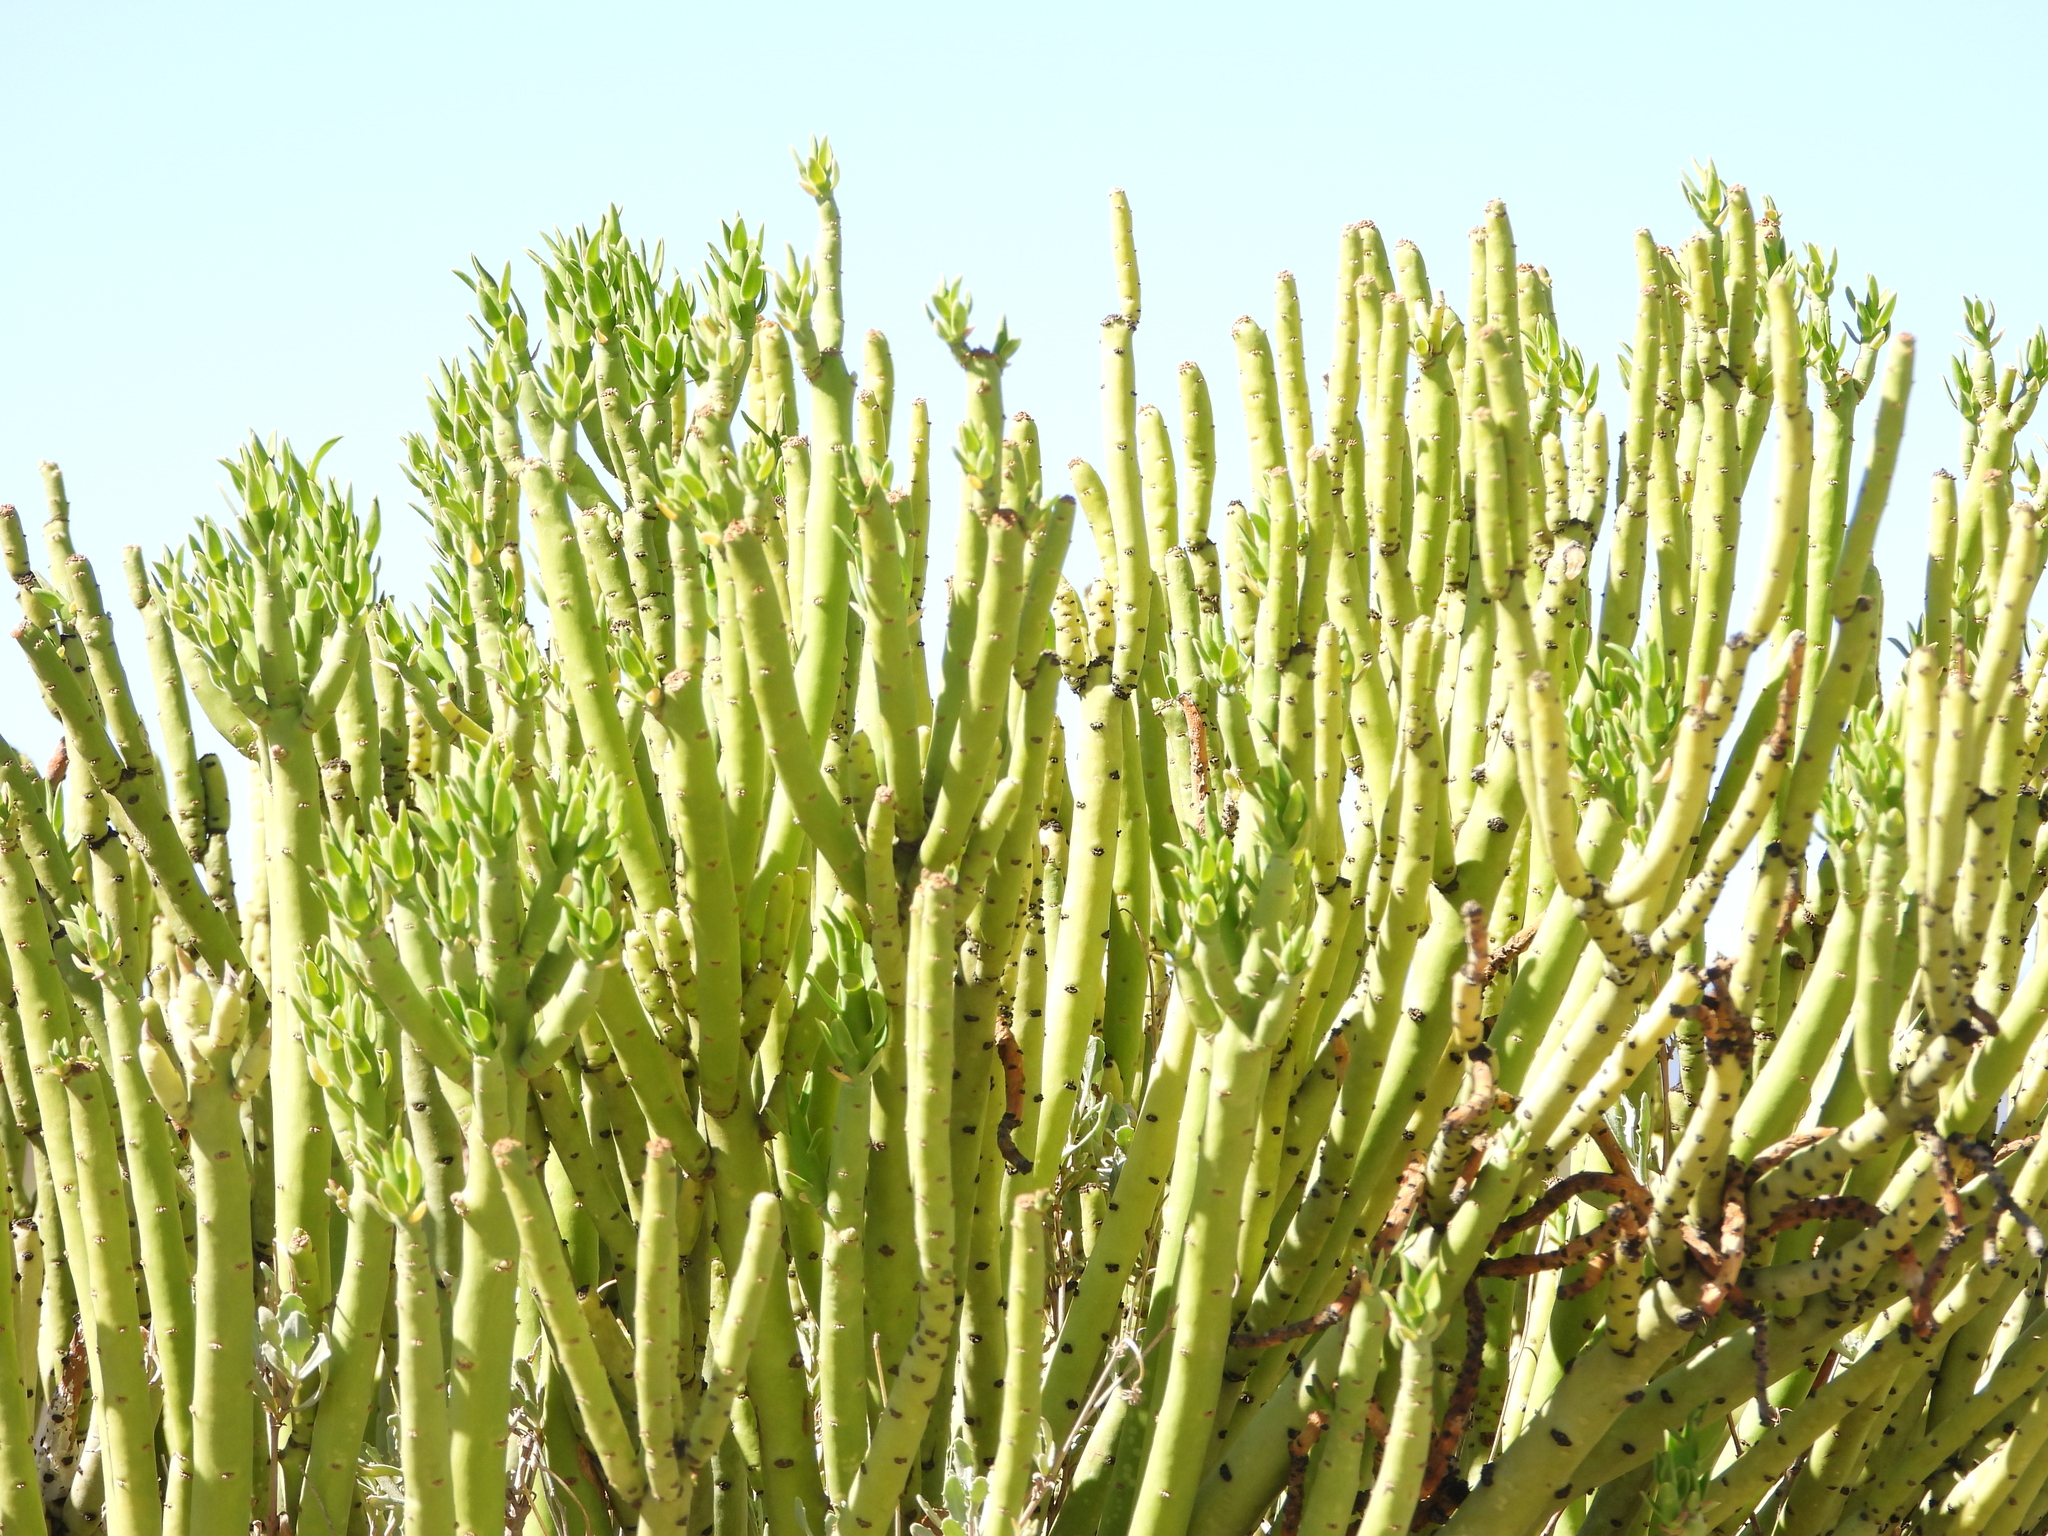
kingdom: Plantae
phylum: Tracheophyta
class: Magnoliopsida
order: Malpighiales
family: Euphorbiaceae
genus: Euphorbia
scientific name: Euphorbia mauritanica
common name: Jackal's-food
